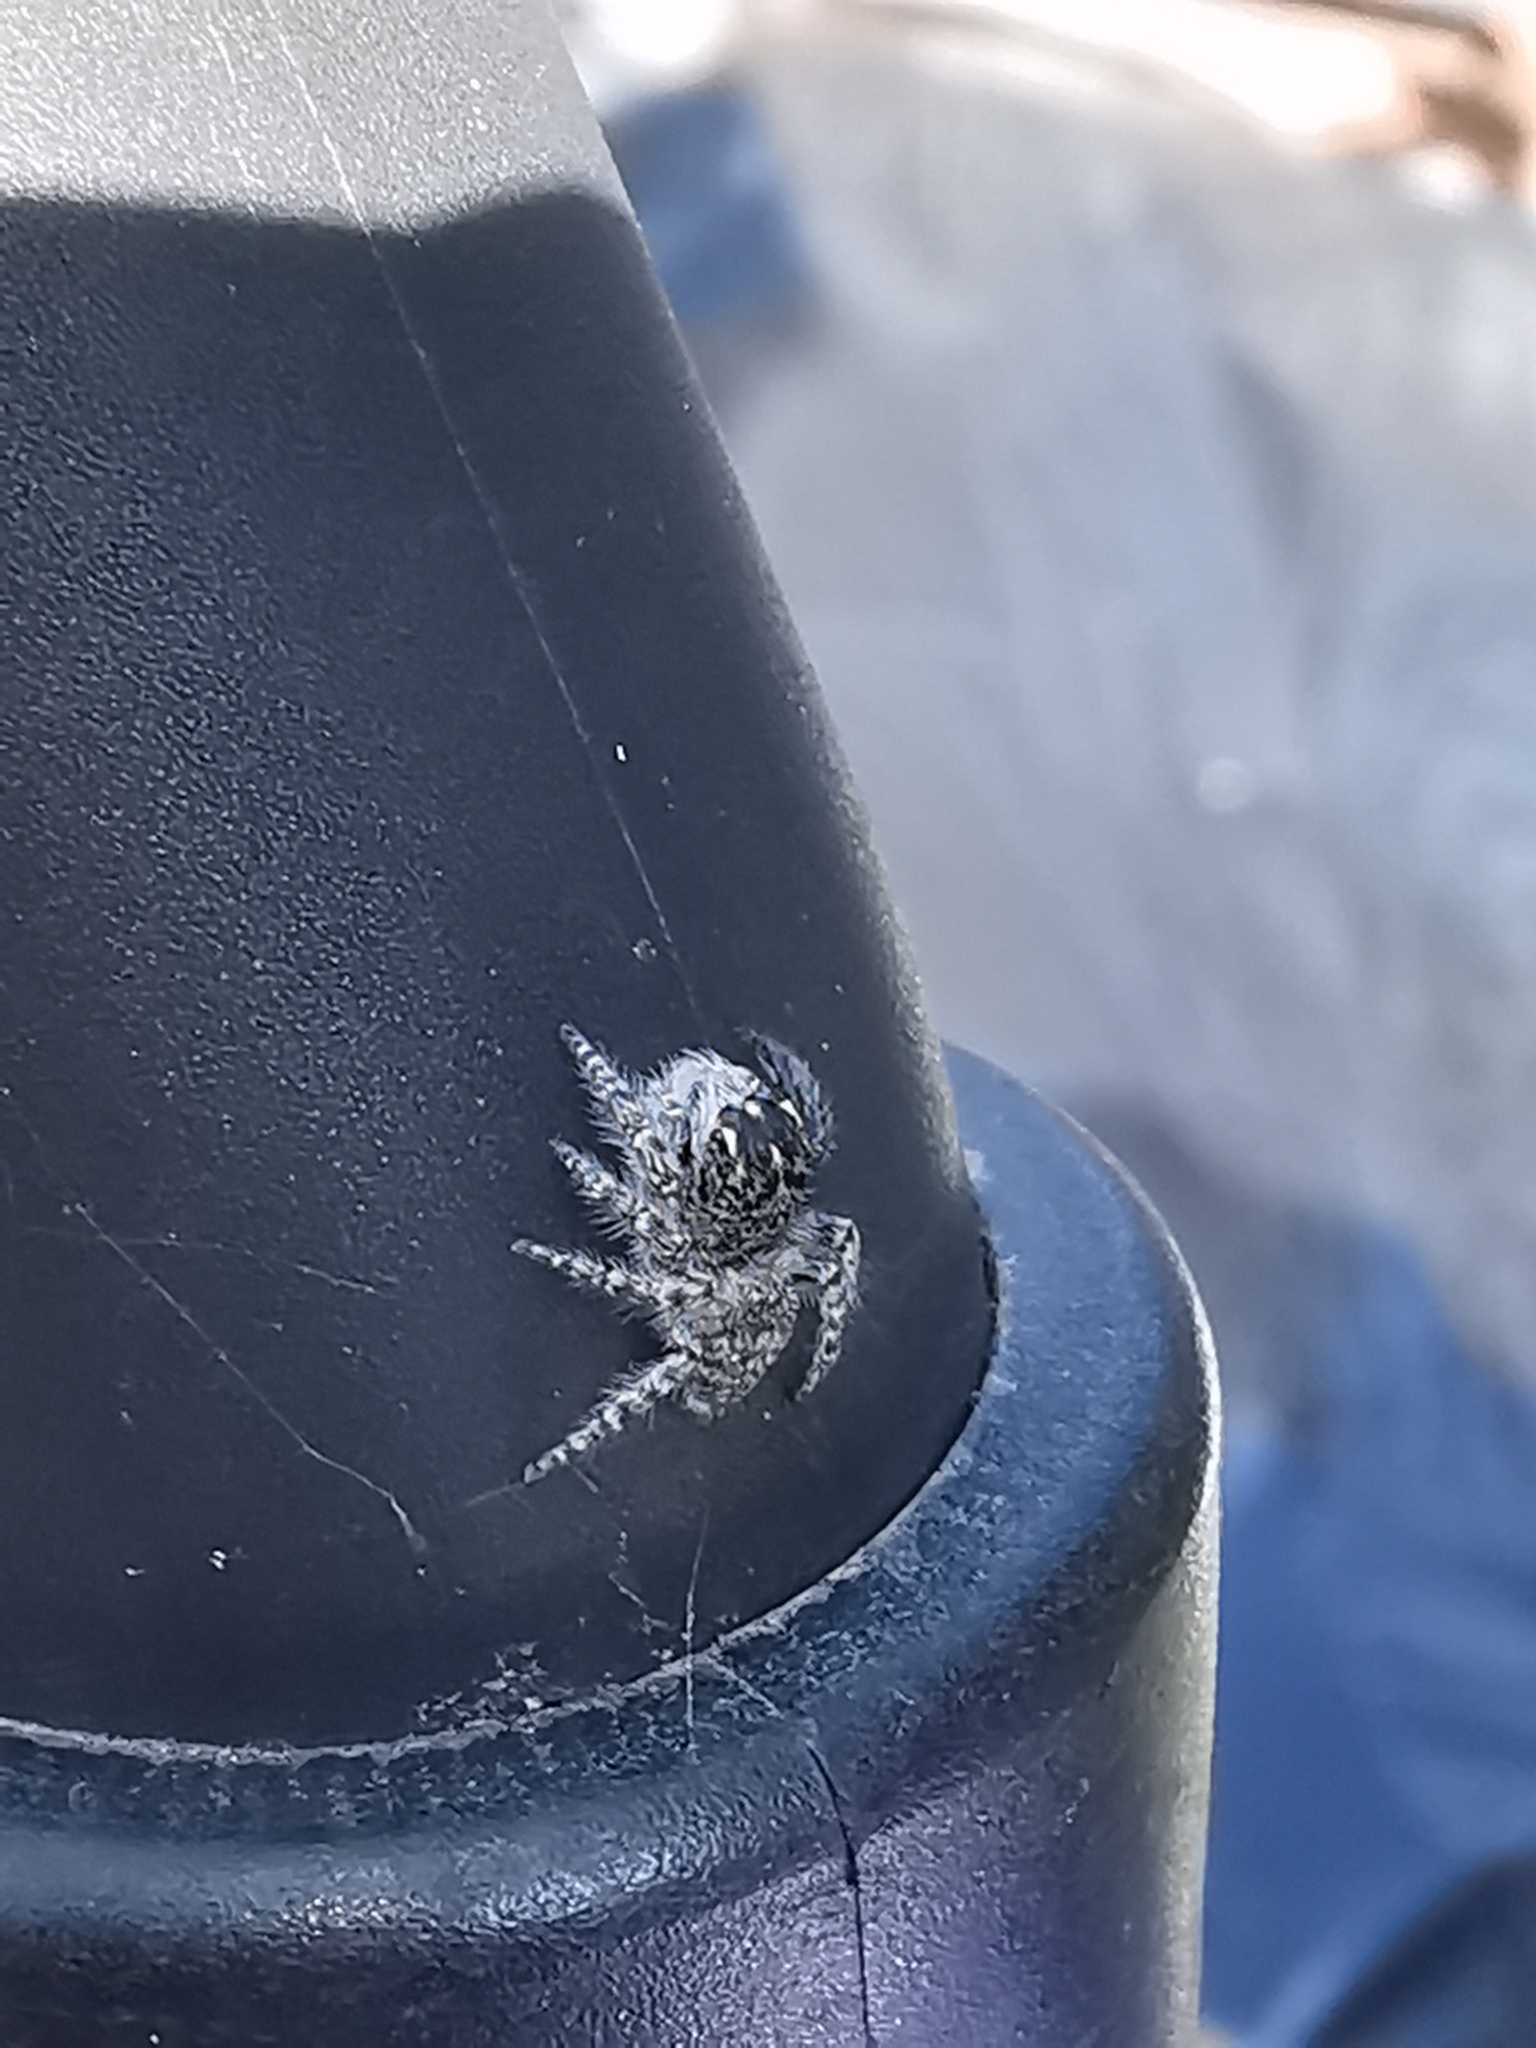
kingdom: Animalia
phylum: Arthropoda
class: Arachnida
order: Araneae
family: Salticidae
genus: Philaeus
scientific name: Philaeus chrysops
